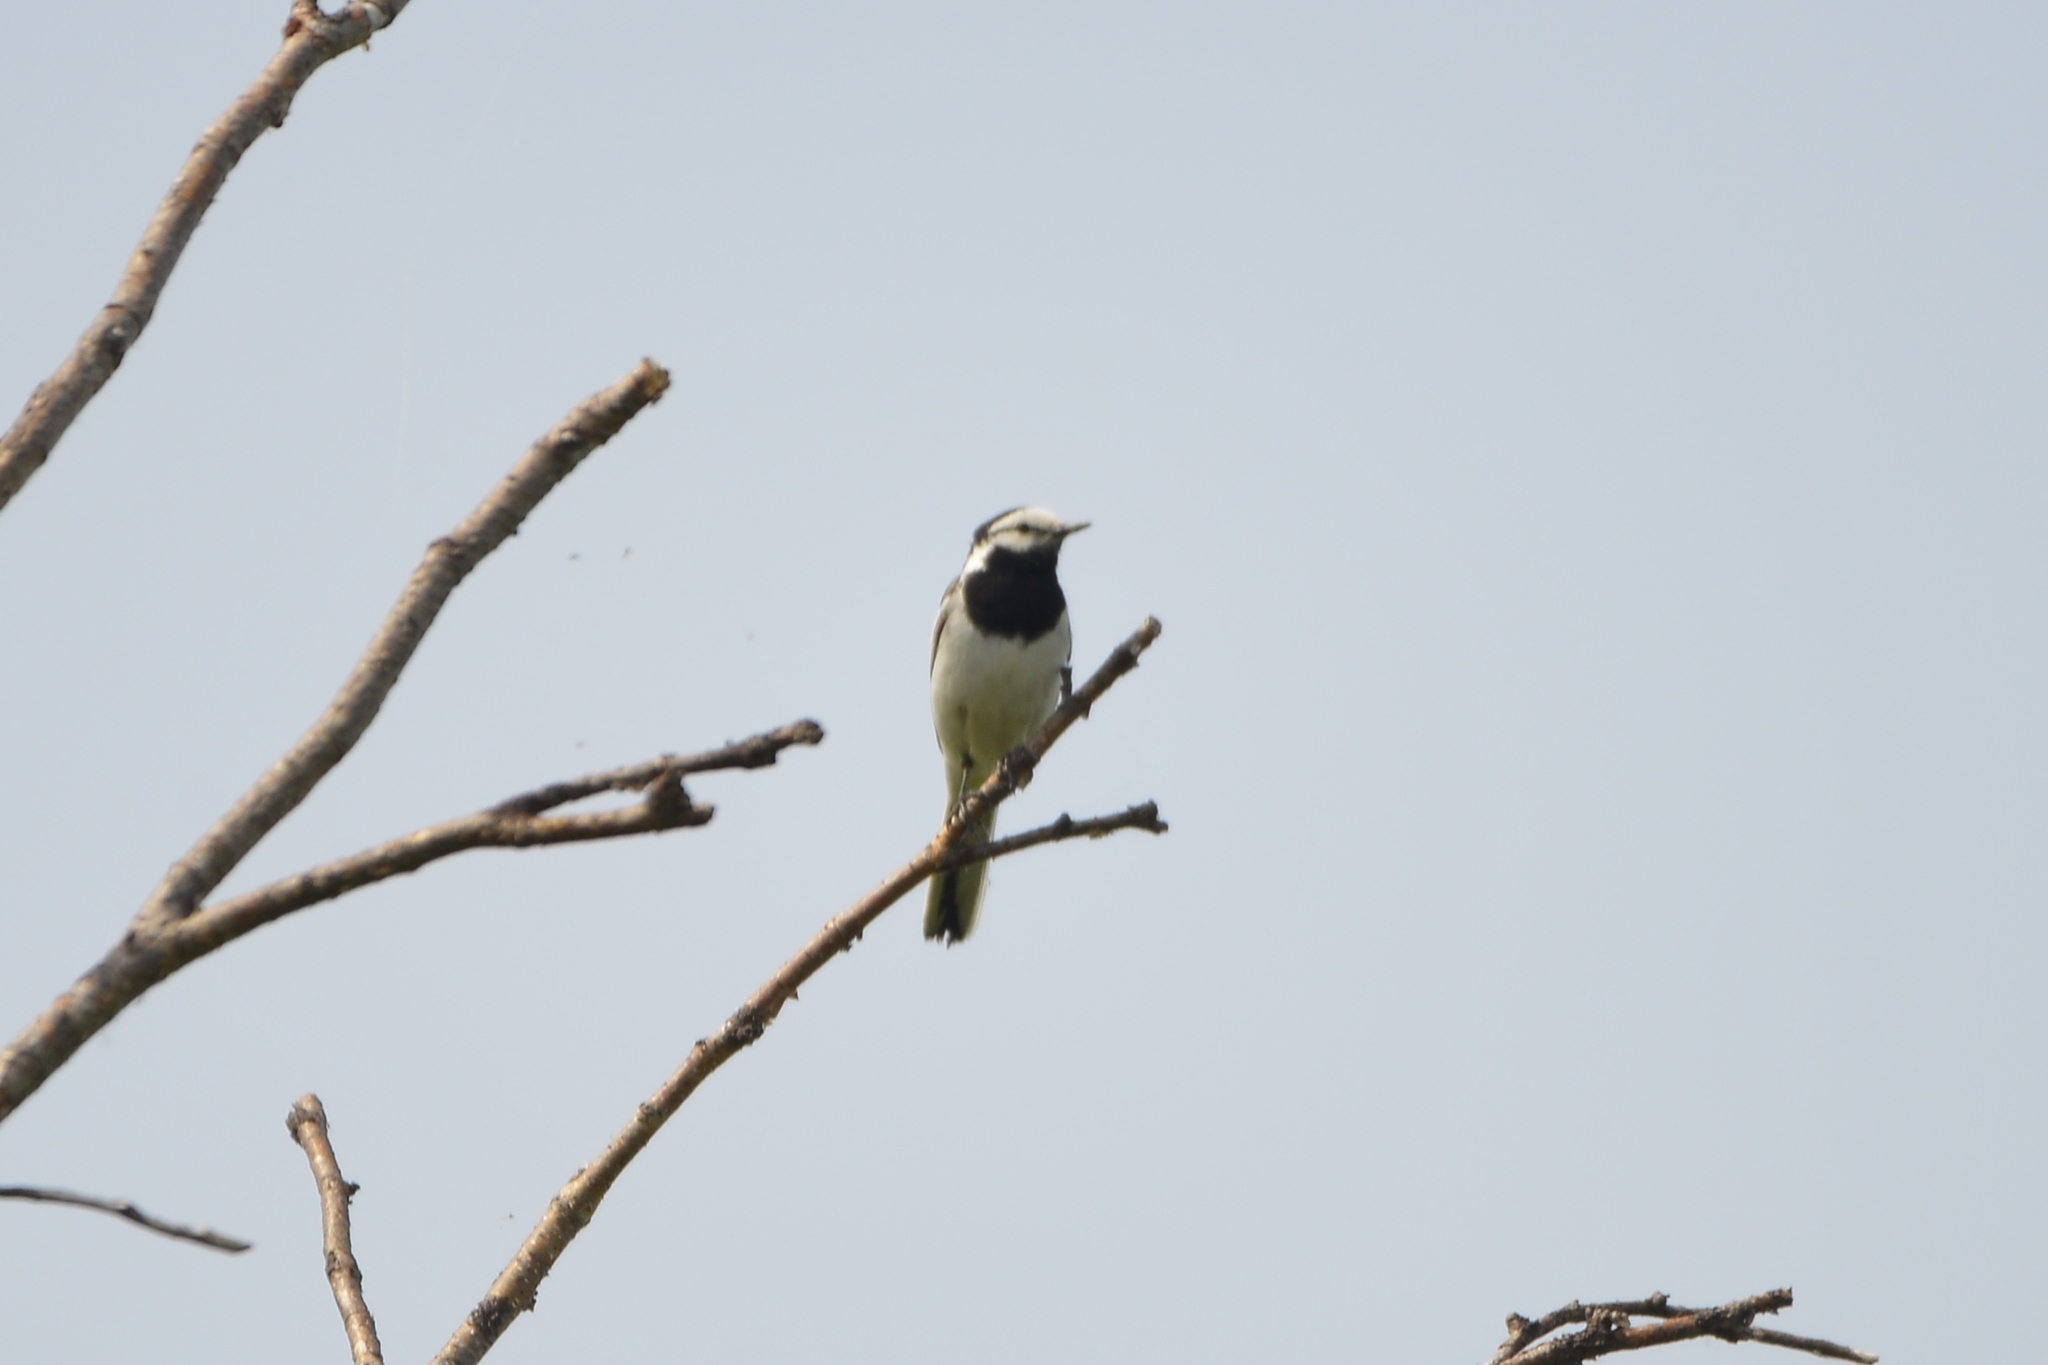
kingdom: Animalia
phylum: Chordata
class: Aves
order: Passeriformes
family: Motacillidae
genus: Motacilla
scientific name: Motacilla alba
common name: White wagtail
